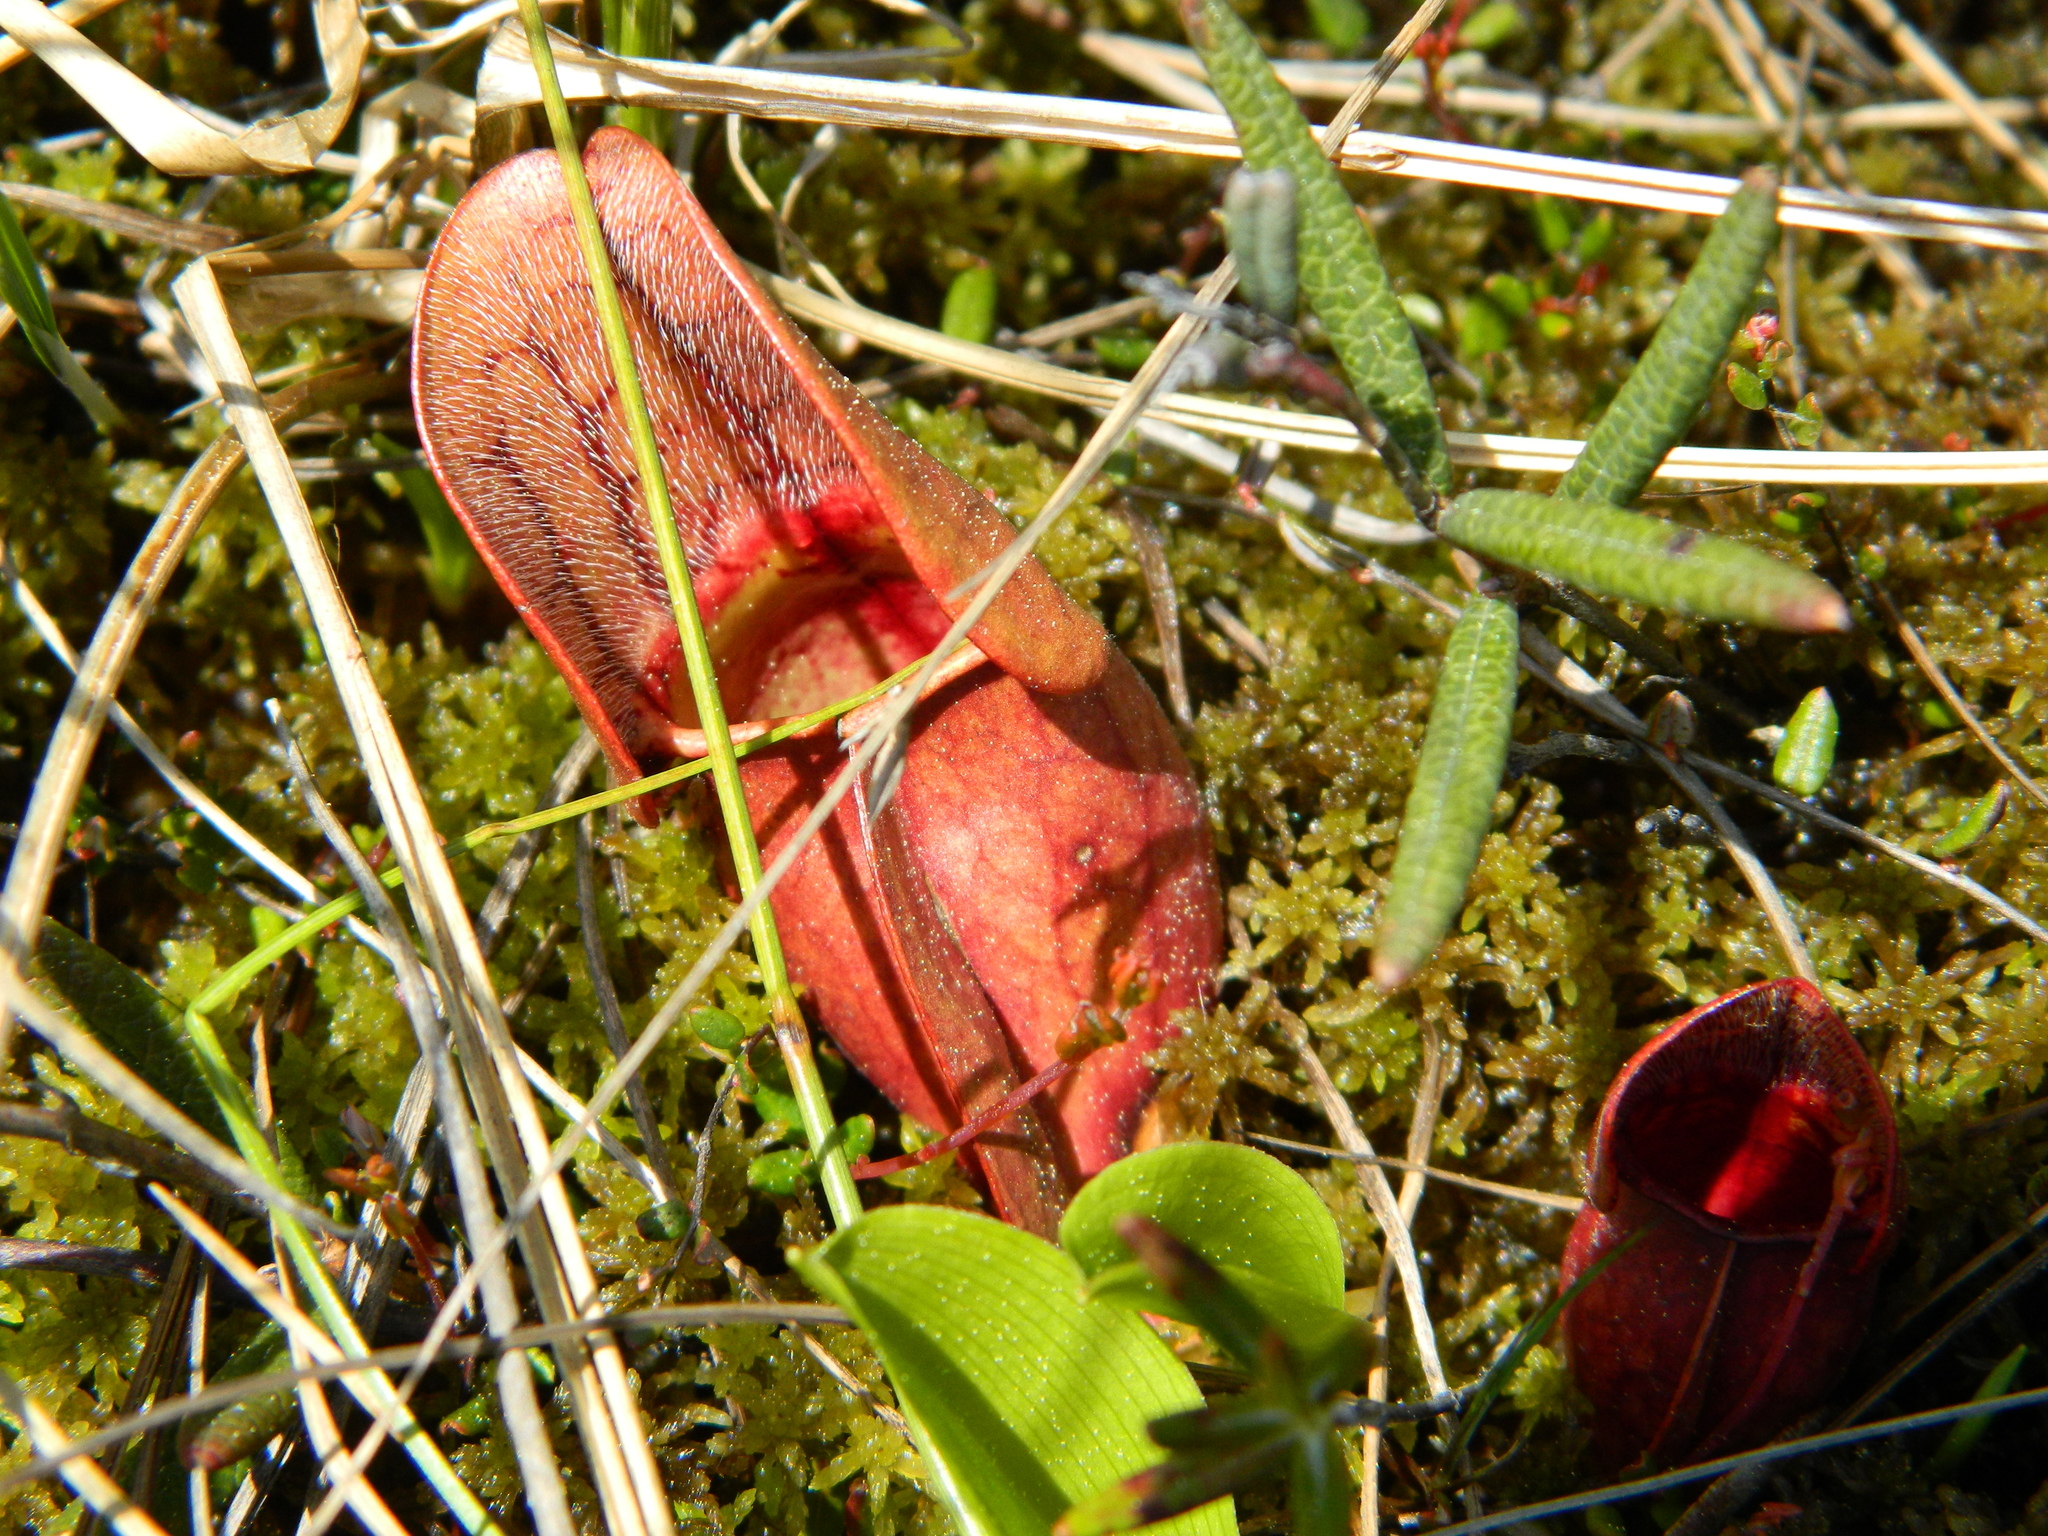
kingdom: Plantae
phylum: Tracheophyta
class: Magnoliopsida
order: Ericales
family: Sarraceniaceae
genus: Sarracenia
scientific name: Sarracenia purpurea
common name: Pitcherplant
